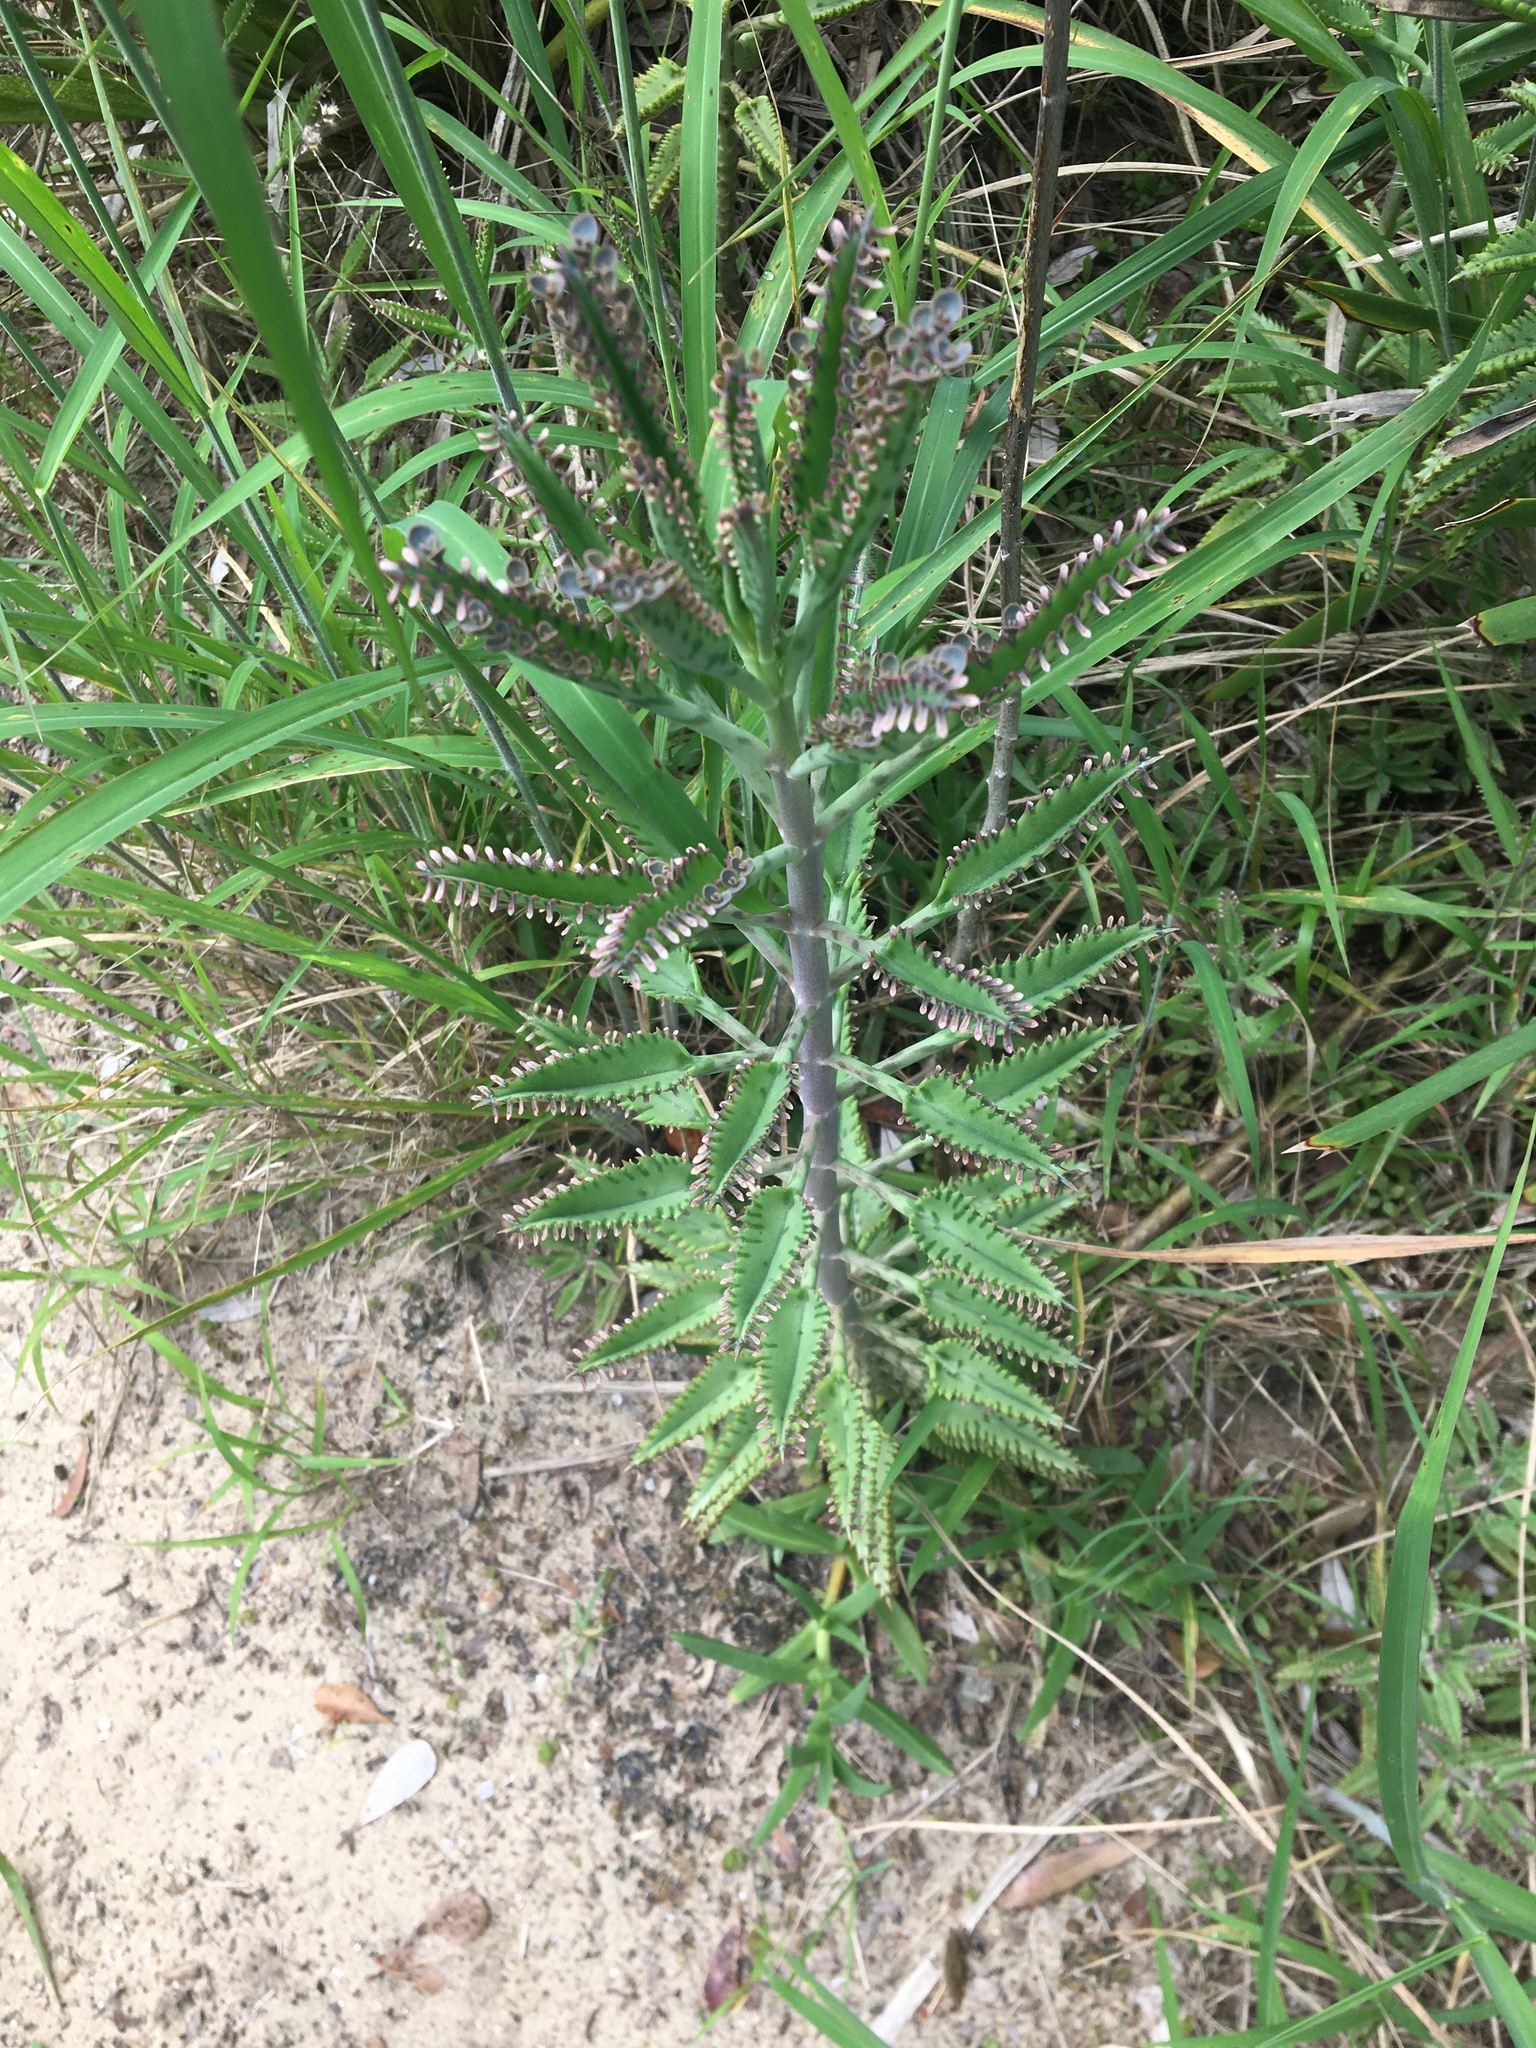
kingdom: Plantae
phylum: Tracheophyta
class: Magnoliopsida
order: Saxifragales
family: Crassulaceae
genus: Kalanchoe
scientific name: Kalanchoe houghtonii
